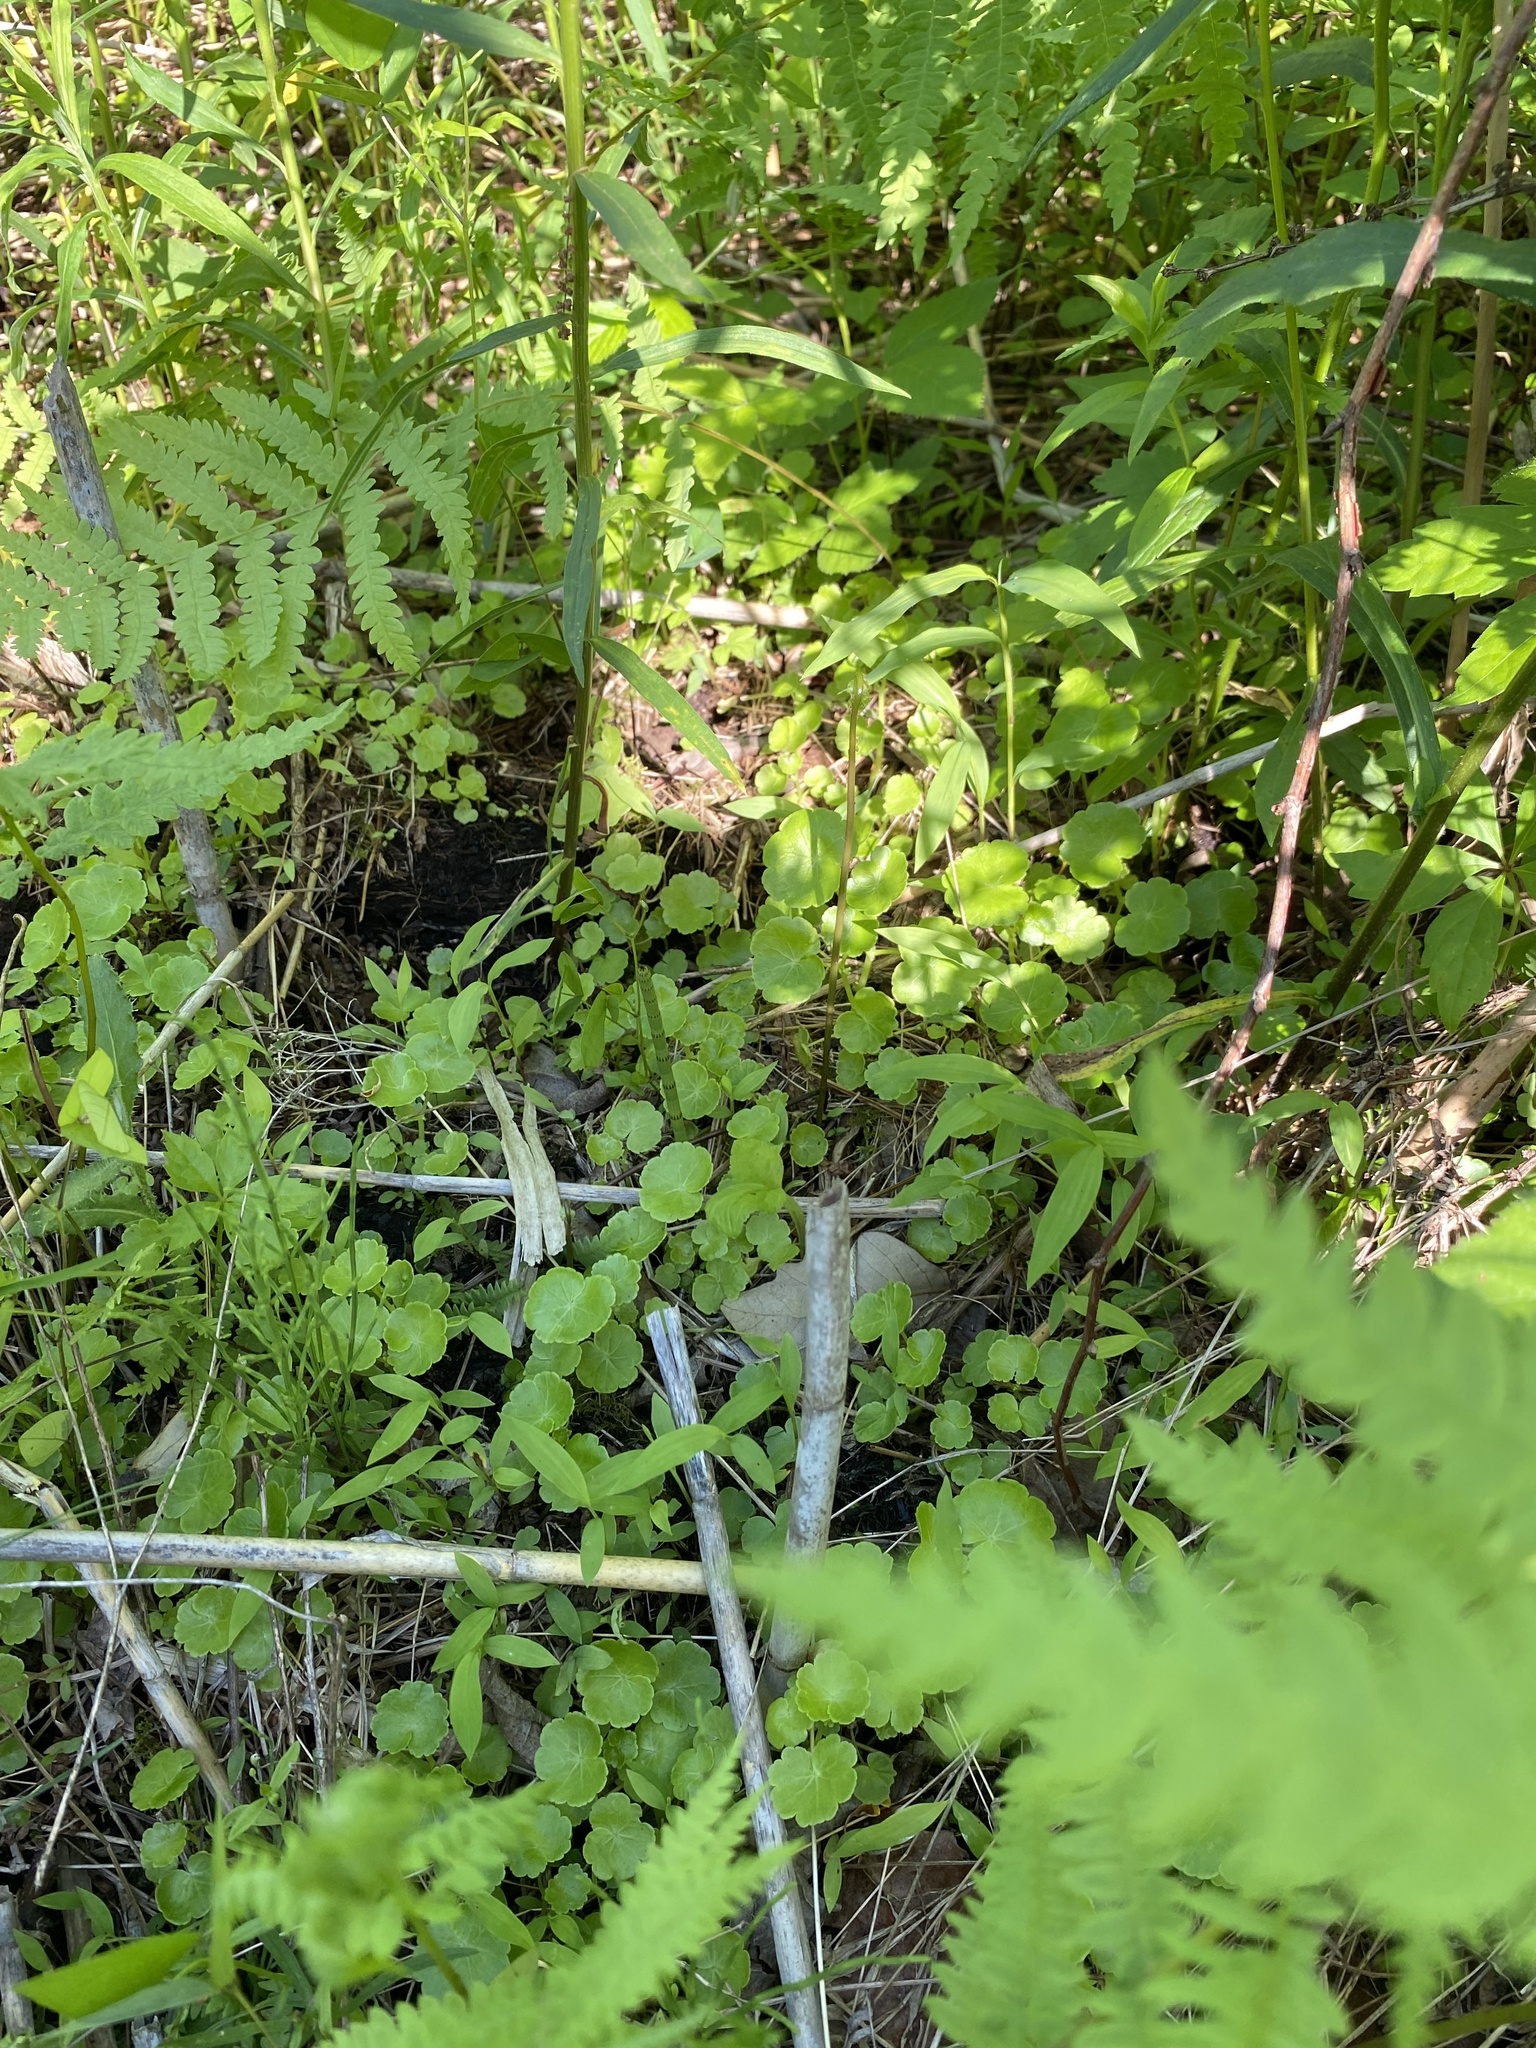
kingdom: Plantae
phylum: Tracheophyta
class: Magnoliopsida
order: Apiales
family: Araliaceae
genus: Hydrocotyle
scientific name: Hydrocotyle americana
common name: American water-pennywort
